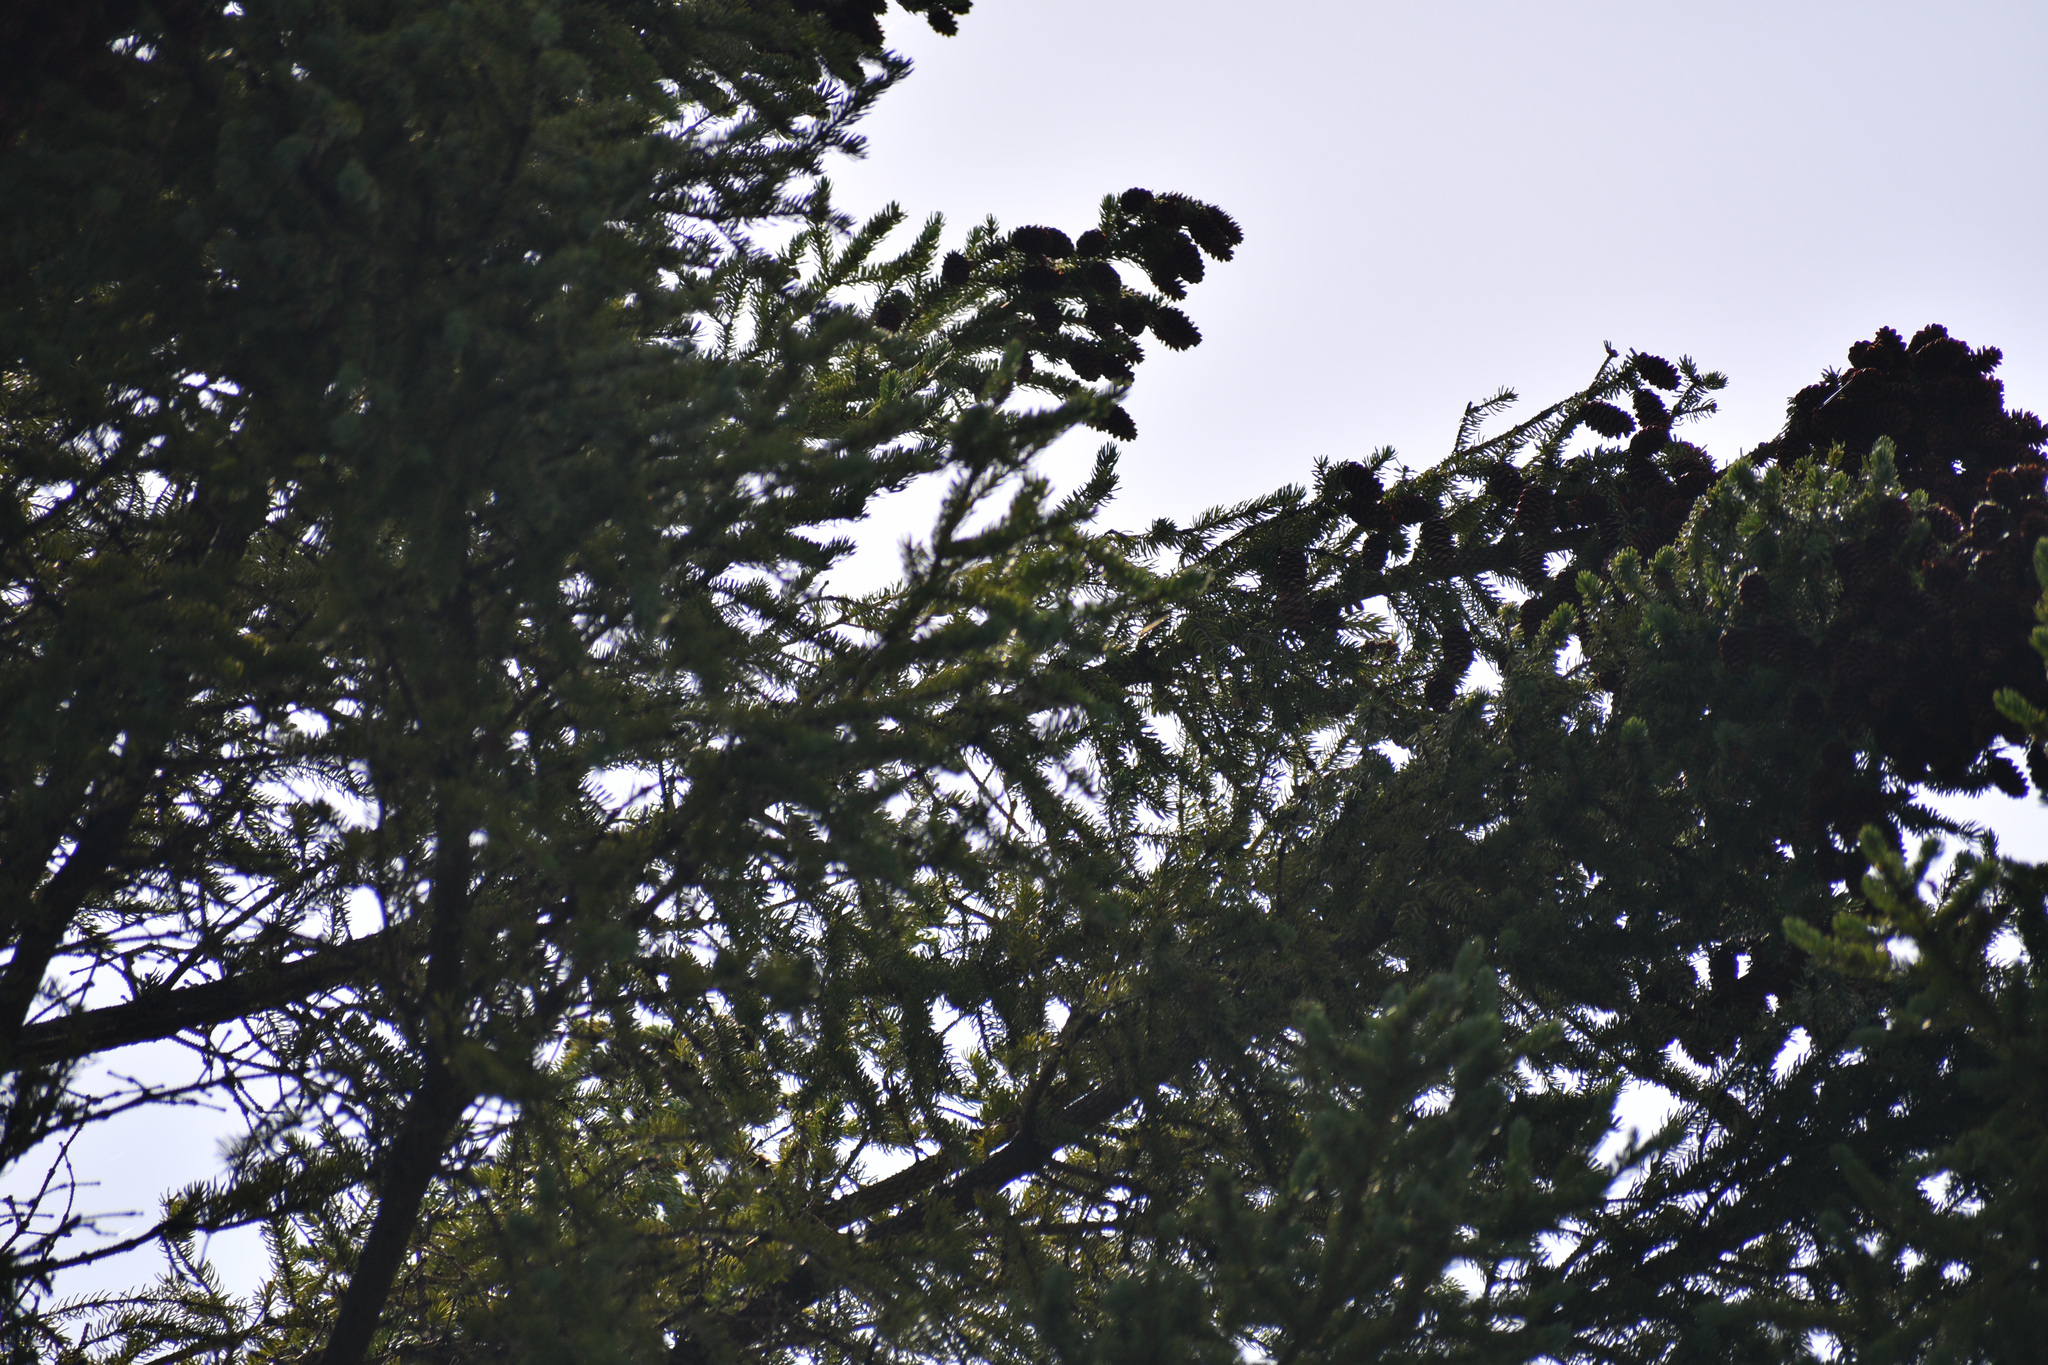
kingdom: Plantae
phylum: Tracheophyta
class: Pinopsida
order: Pinales
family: Pinaceae
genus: Pseudotsuga
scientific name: Pseudotsuga menziesii
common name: Douglas fir
